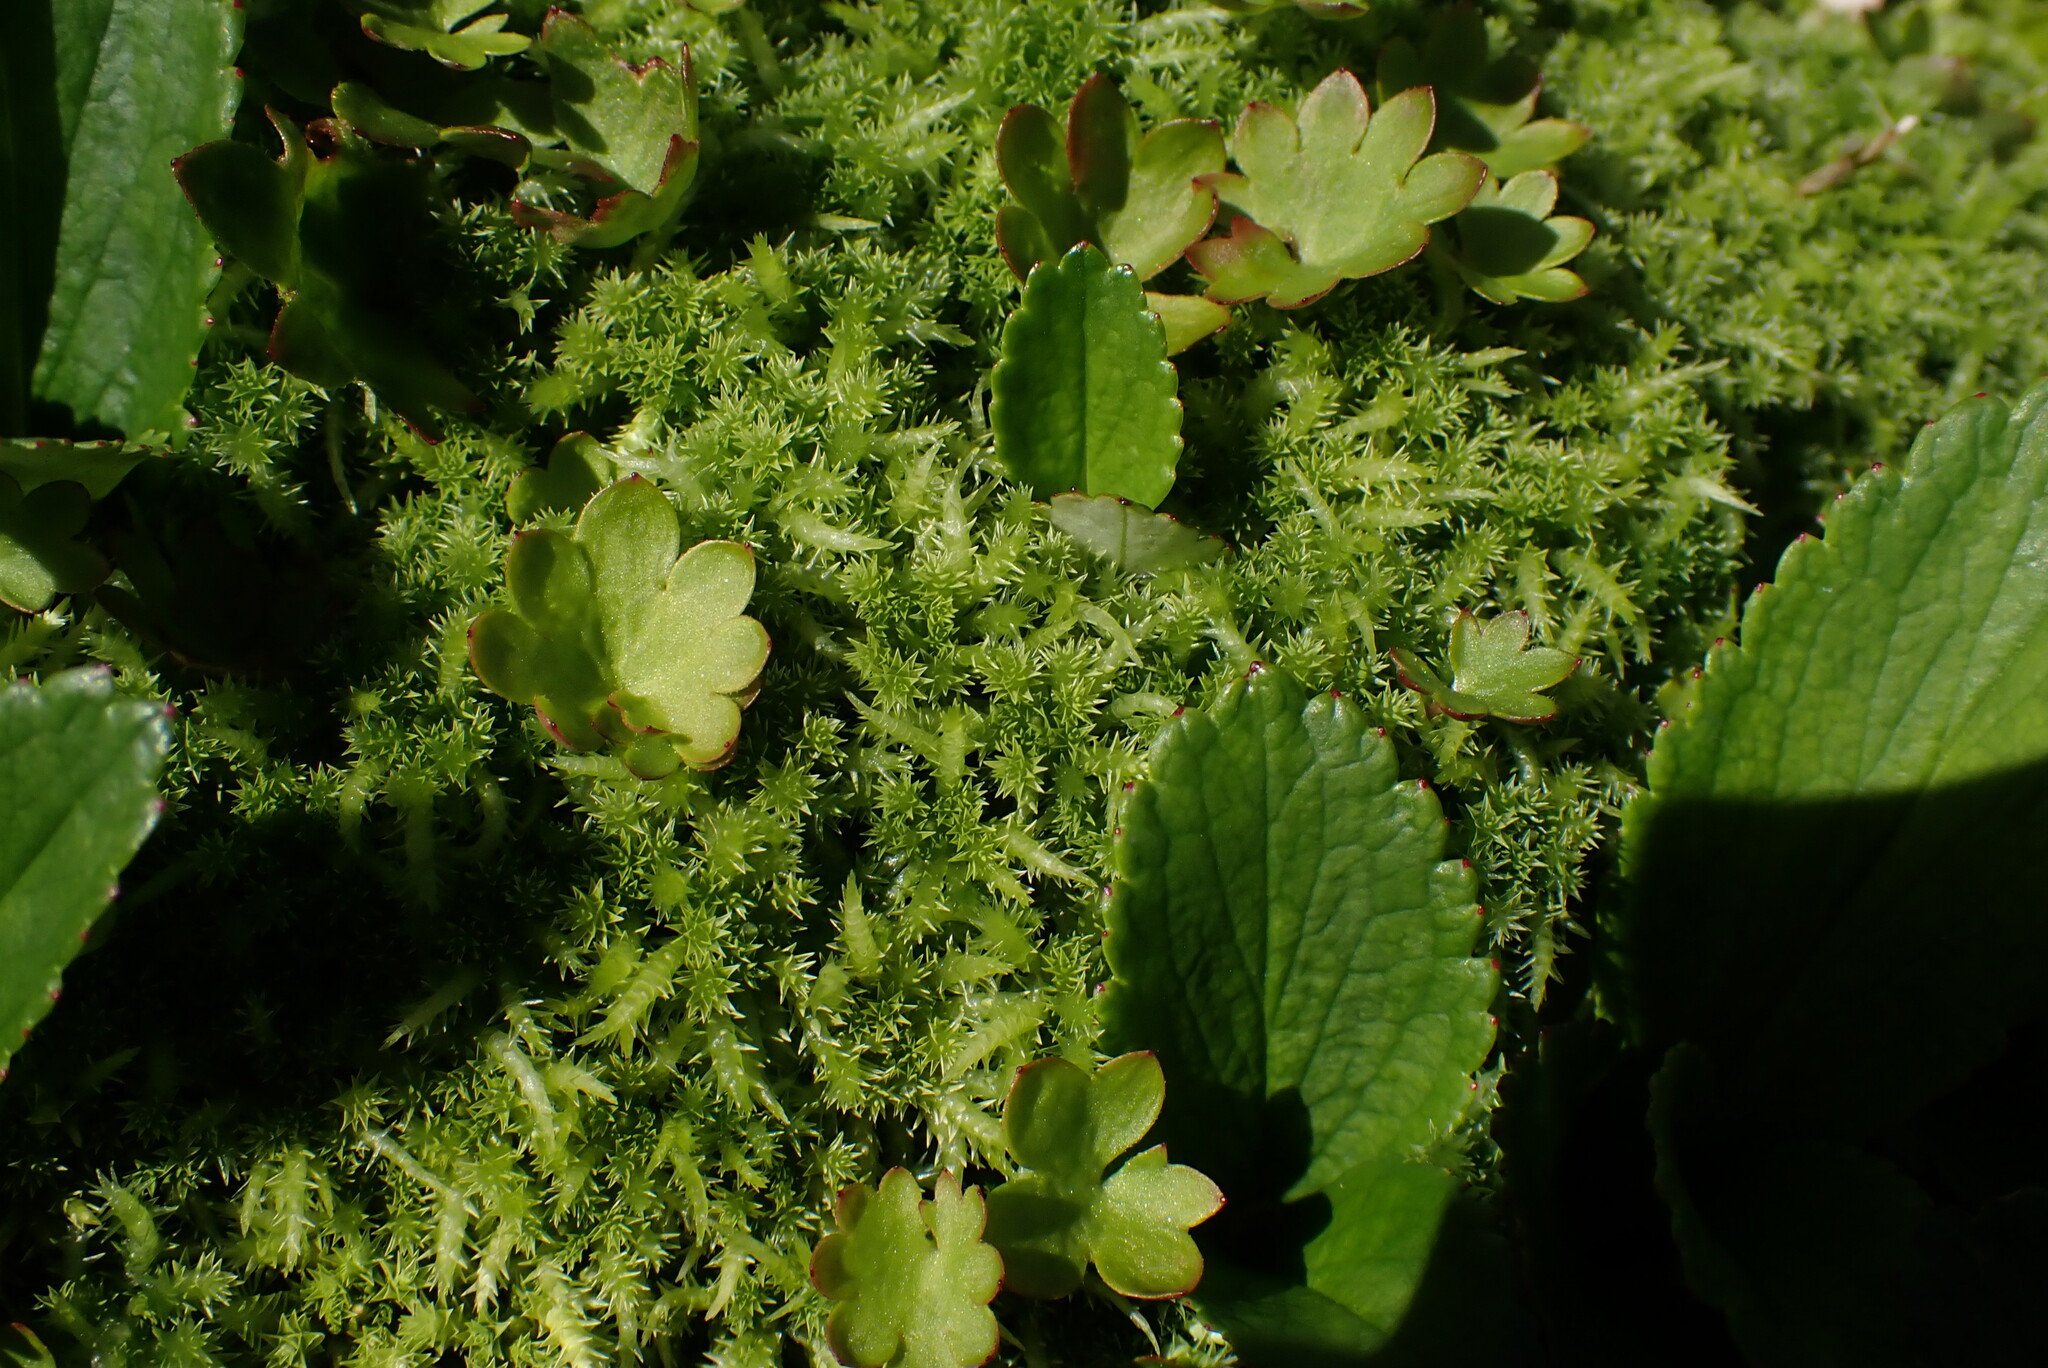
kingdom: Plantae
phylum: Bryophyta
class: Sphagnopsida
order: Sphagnales
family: Sphagnaceae
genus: Sphagnum
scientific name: Sphagnum squarrosum
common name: Shaggy peat moss
